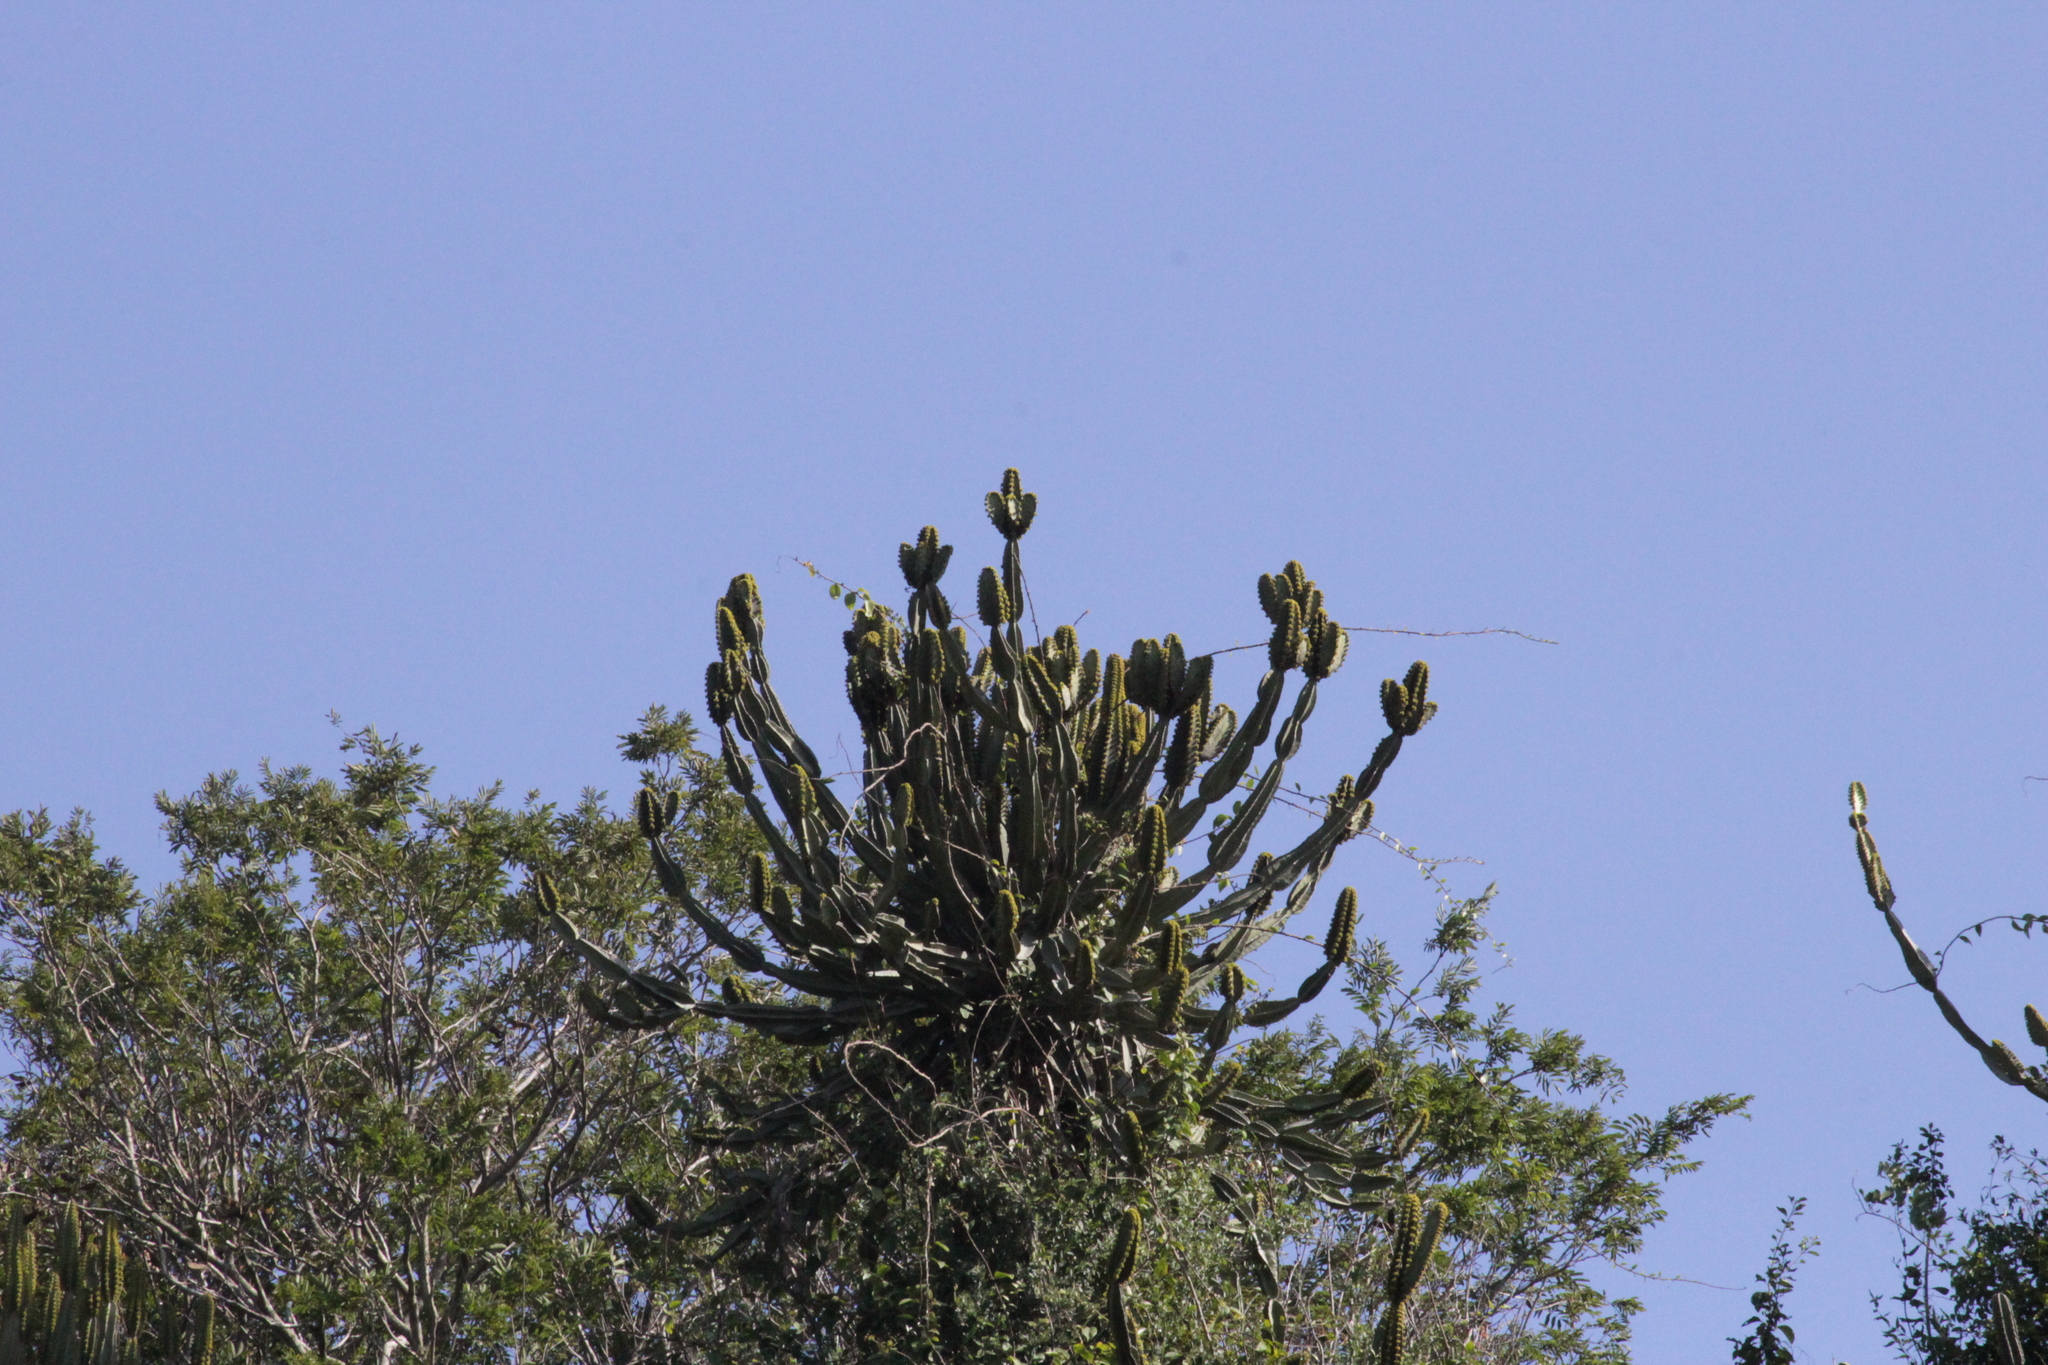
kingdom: Plantae
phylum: Tracheophyta
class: Magnoliopsida
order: Malpighiales
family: Euphorbiaceae
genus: Euphorbia
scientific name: Euphorbia triangularis
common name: Chandelier tree
